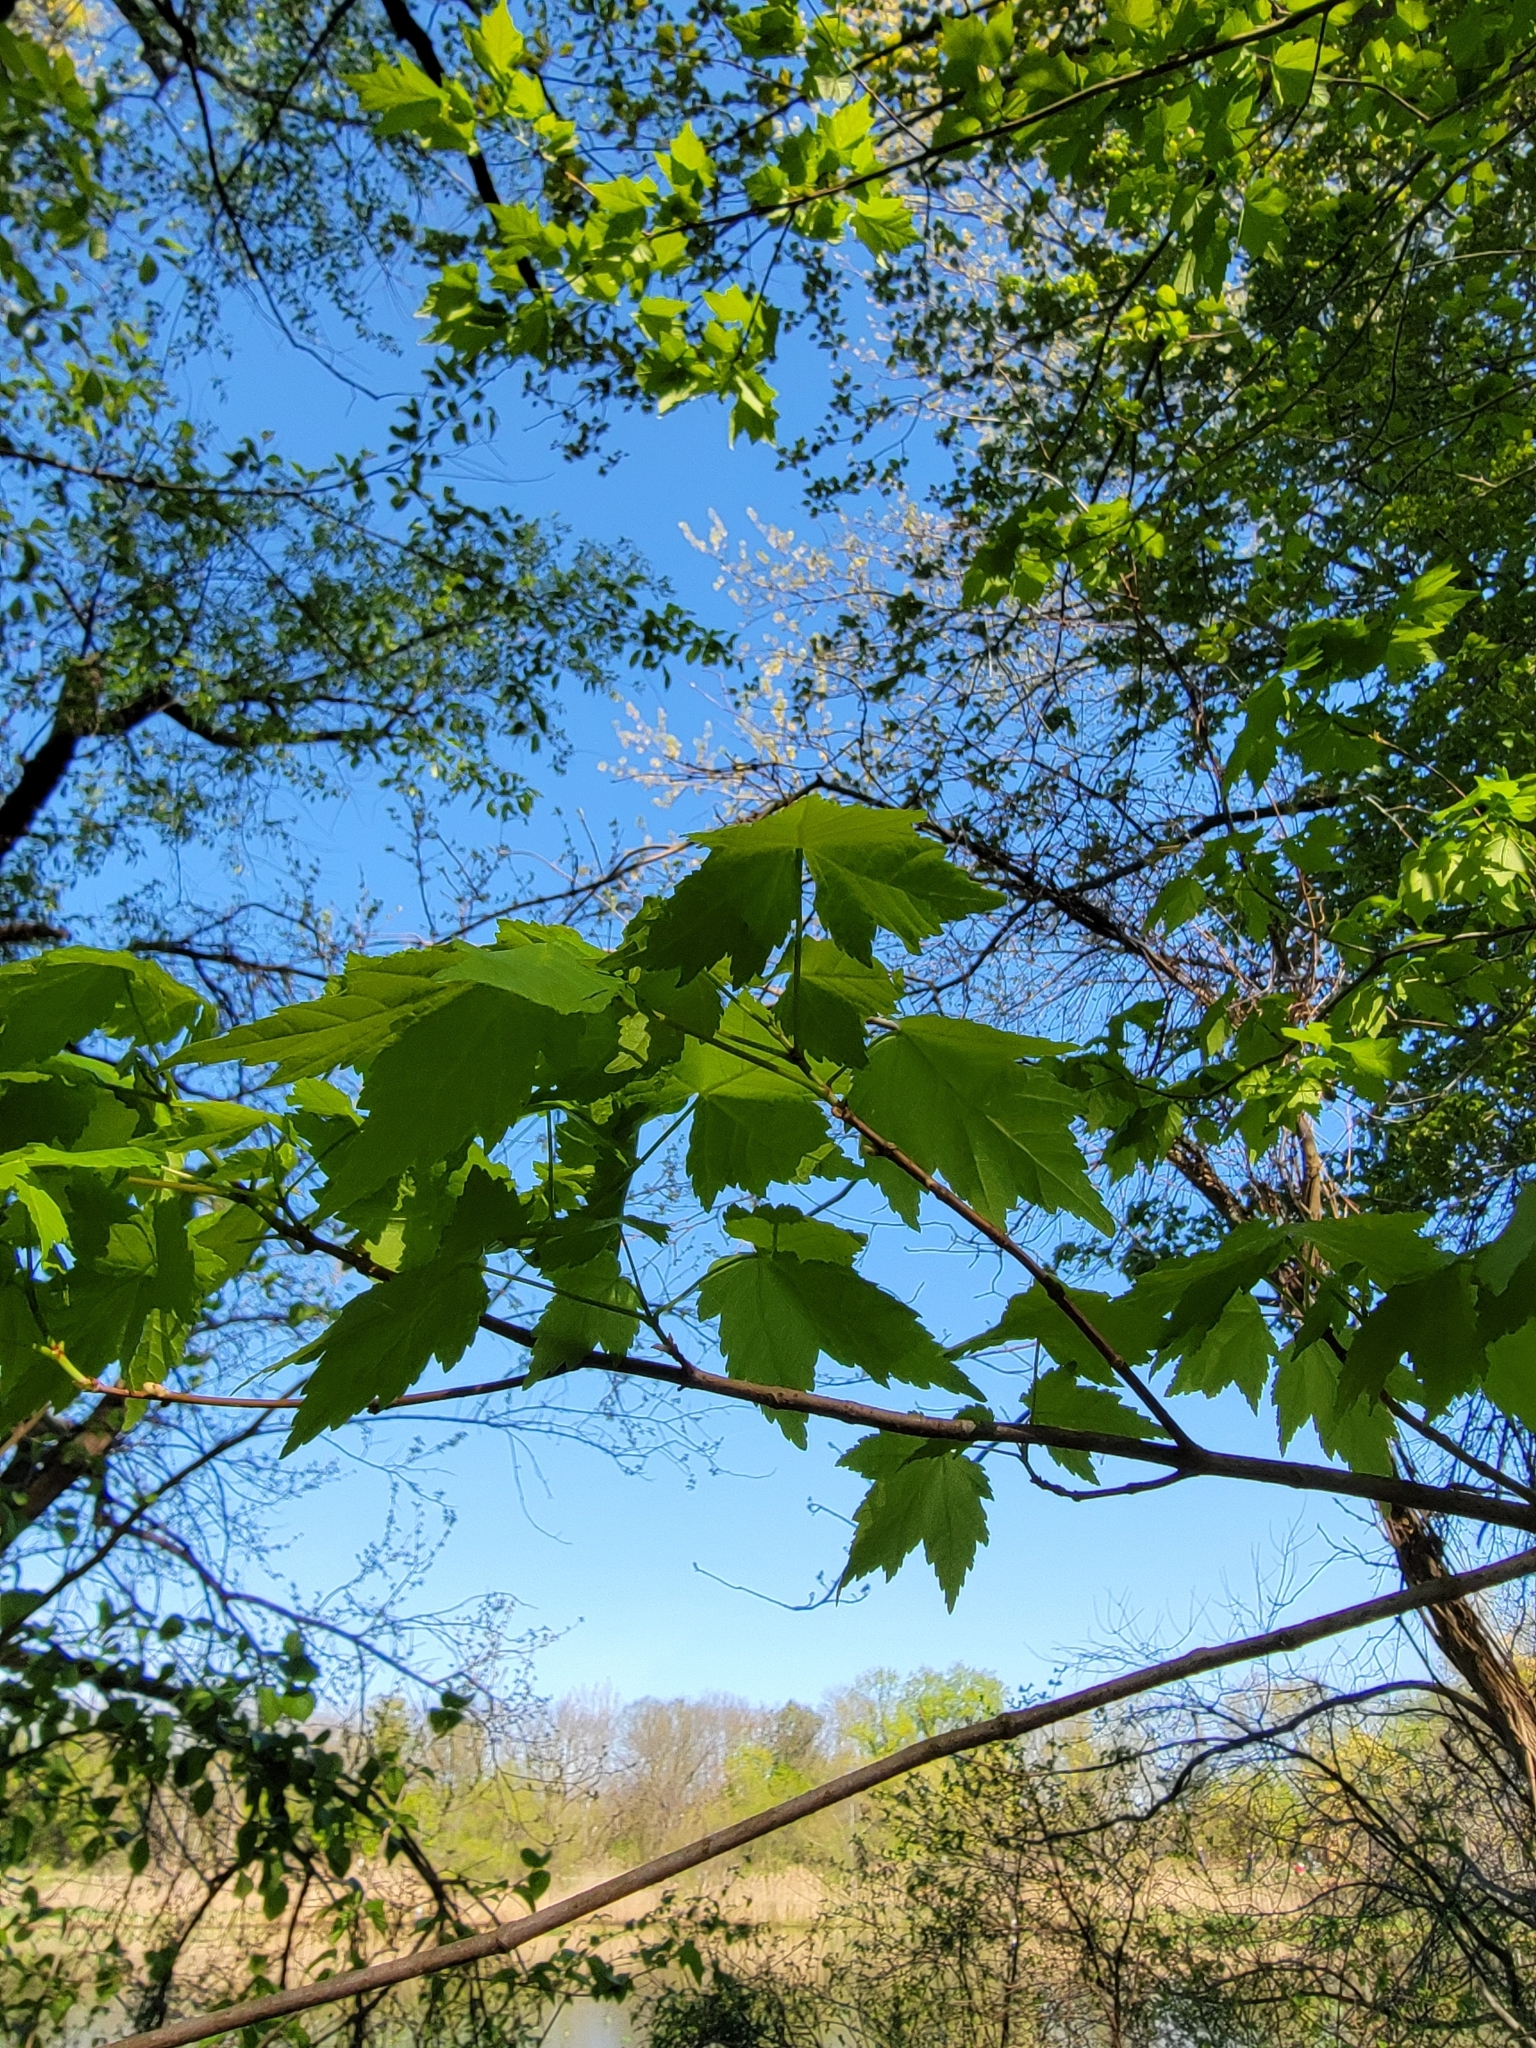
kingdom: Plantae
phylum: Tracheophyta
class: Magnoliopsida
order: Sapindales
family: Sapindaceae
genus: Acer
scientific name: Acer rubrum
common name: Red maple
